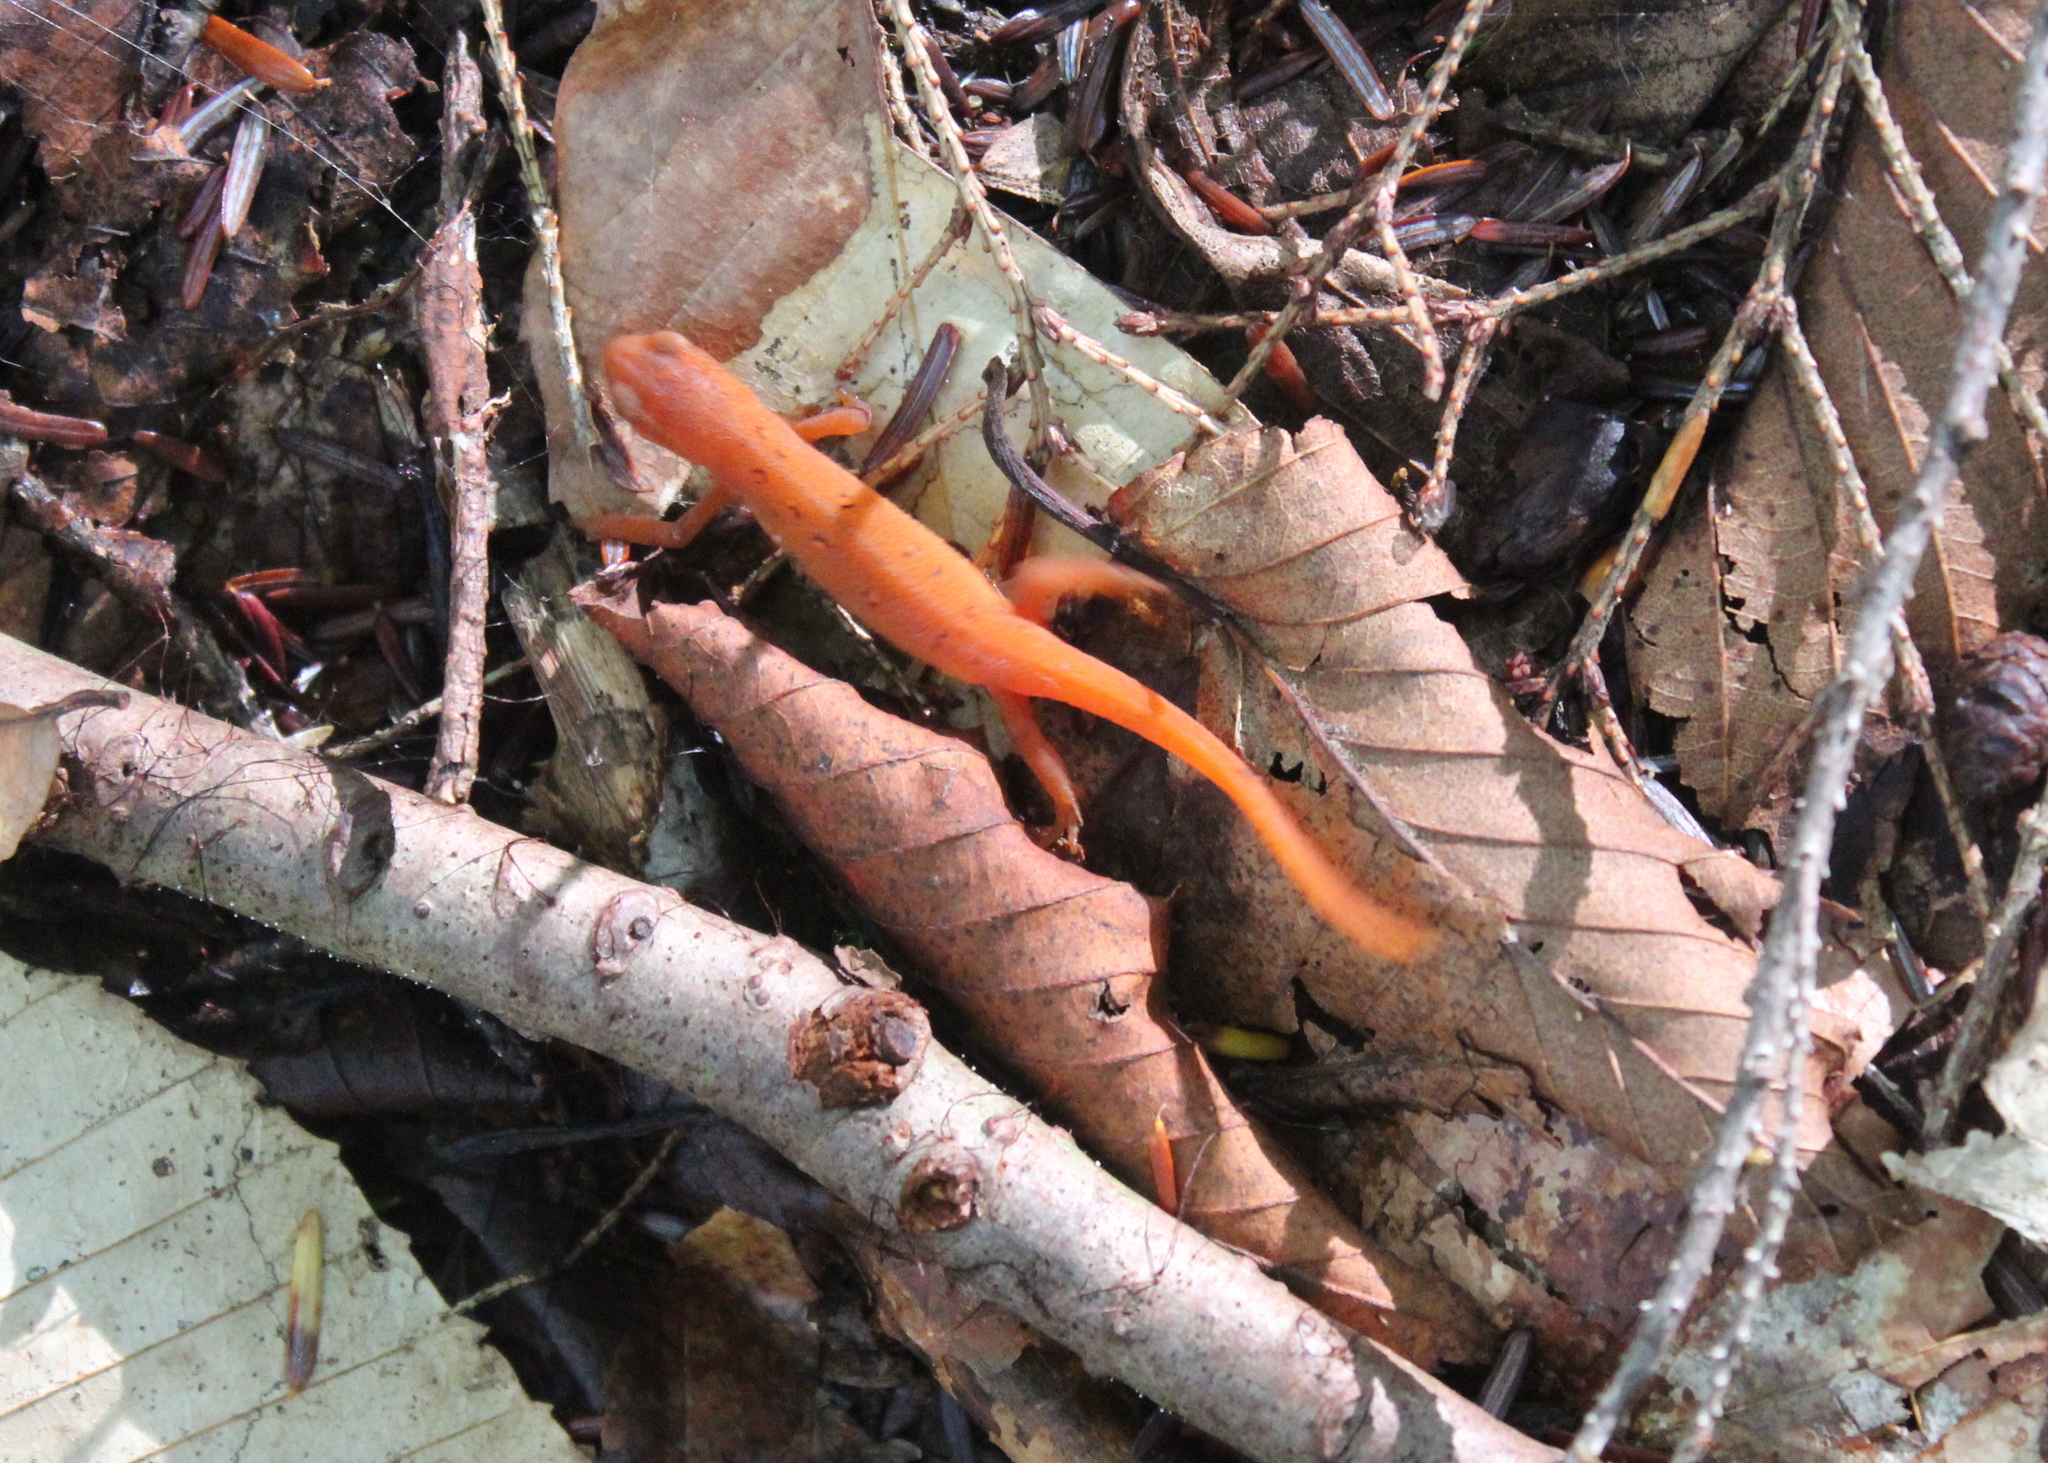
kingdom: Animalia
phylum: Chordata
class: Amphibia
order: Caudata
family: Salamandridae
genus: Notophthalmus
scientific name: Notophthalmus viridescens
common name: Eastern newt
